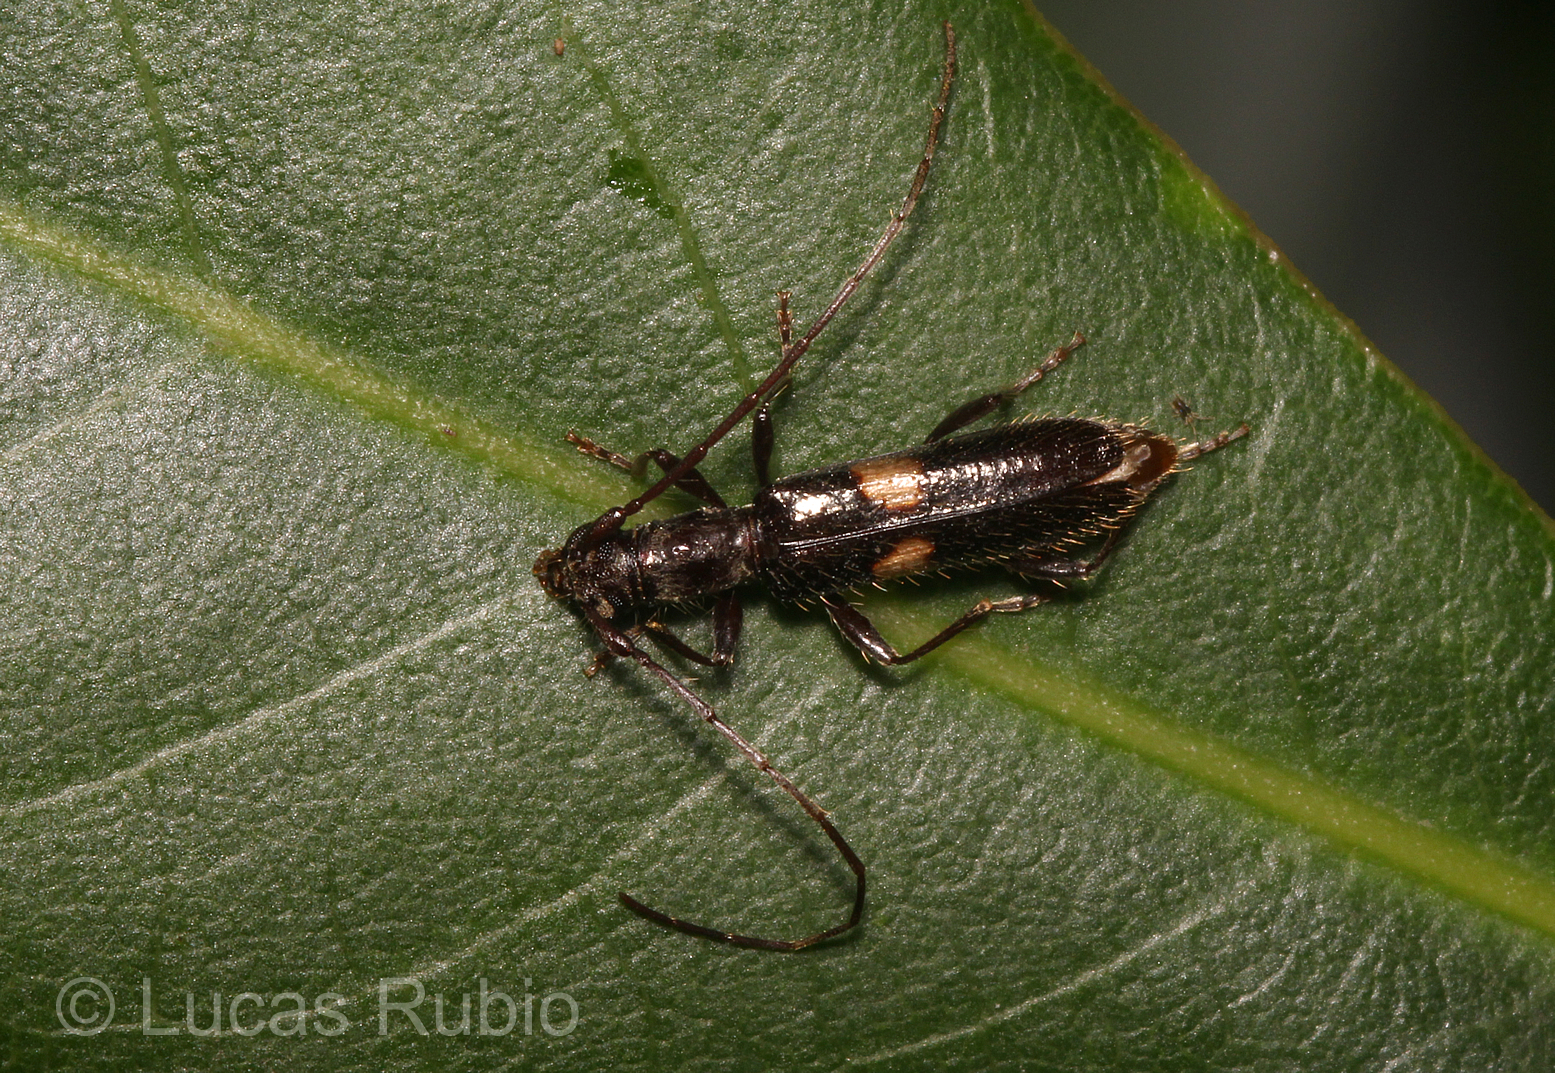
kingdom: Animalia
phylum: Arthropoda
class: Insecta
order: Coleoptera
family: Cerambycidae
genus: Heterachthes
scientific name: Heterachthes plagiatus
